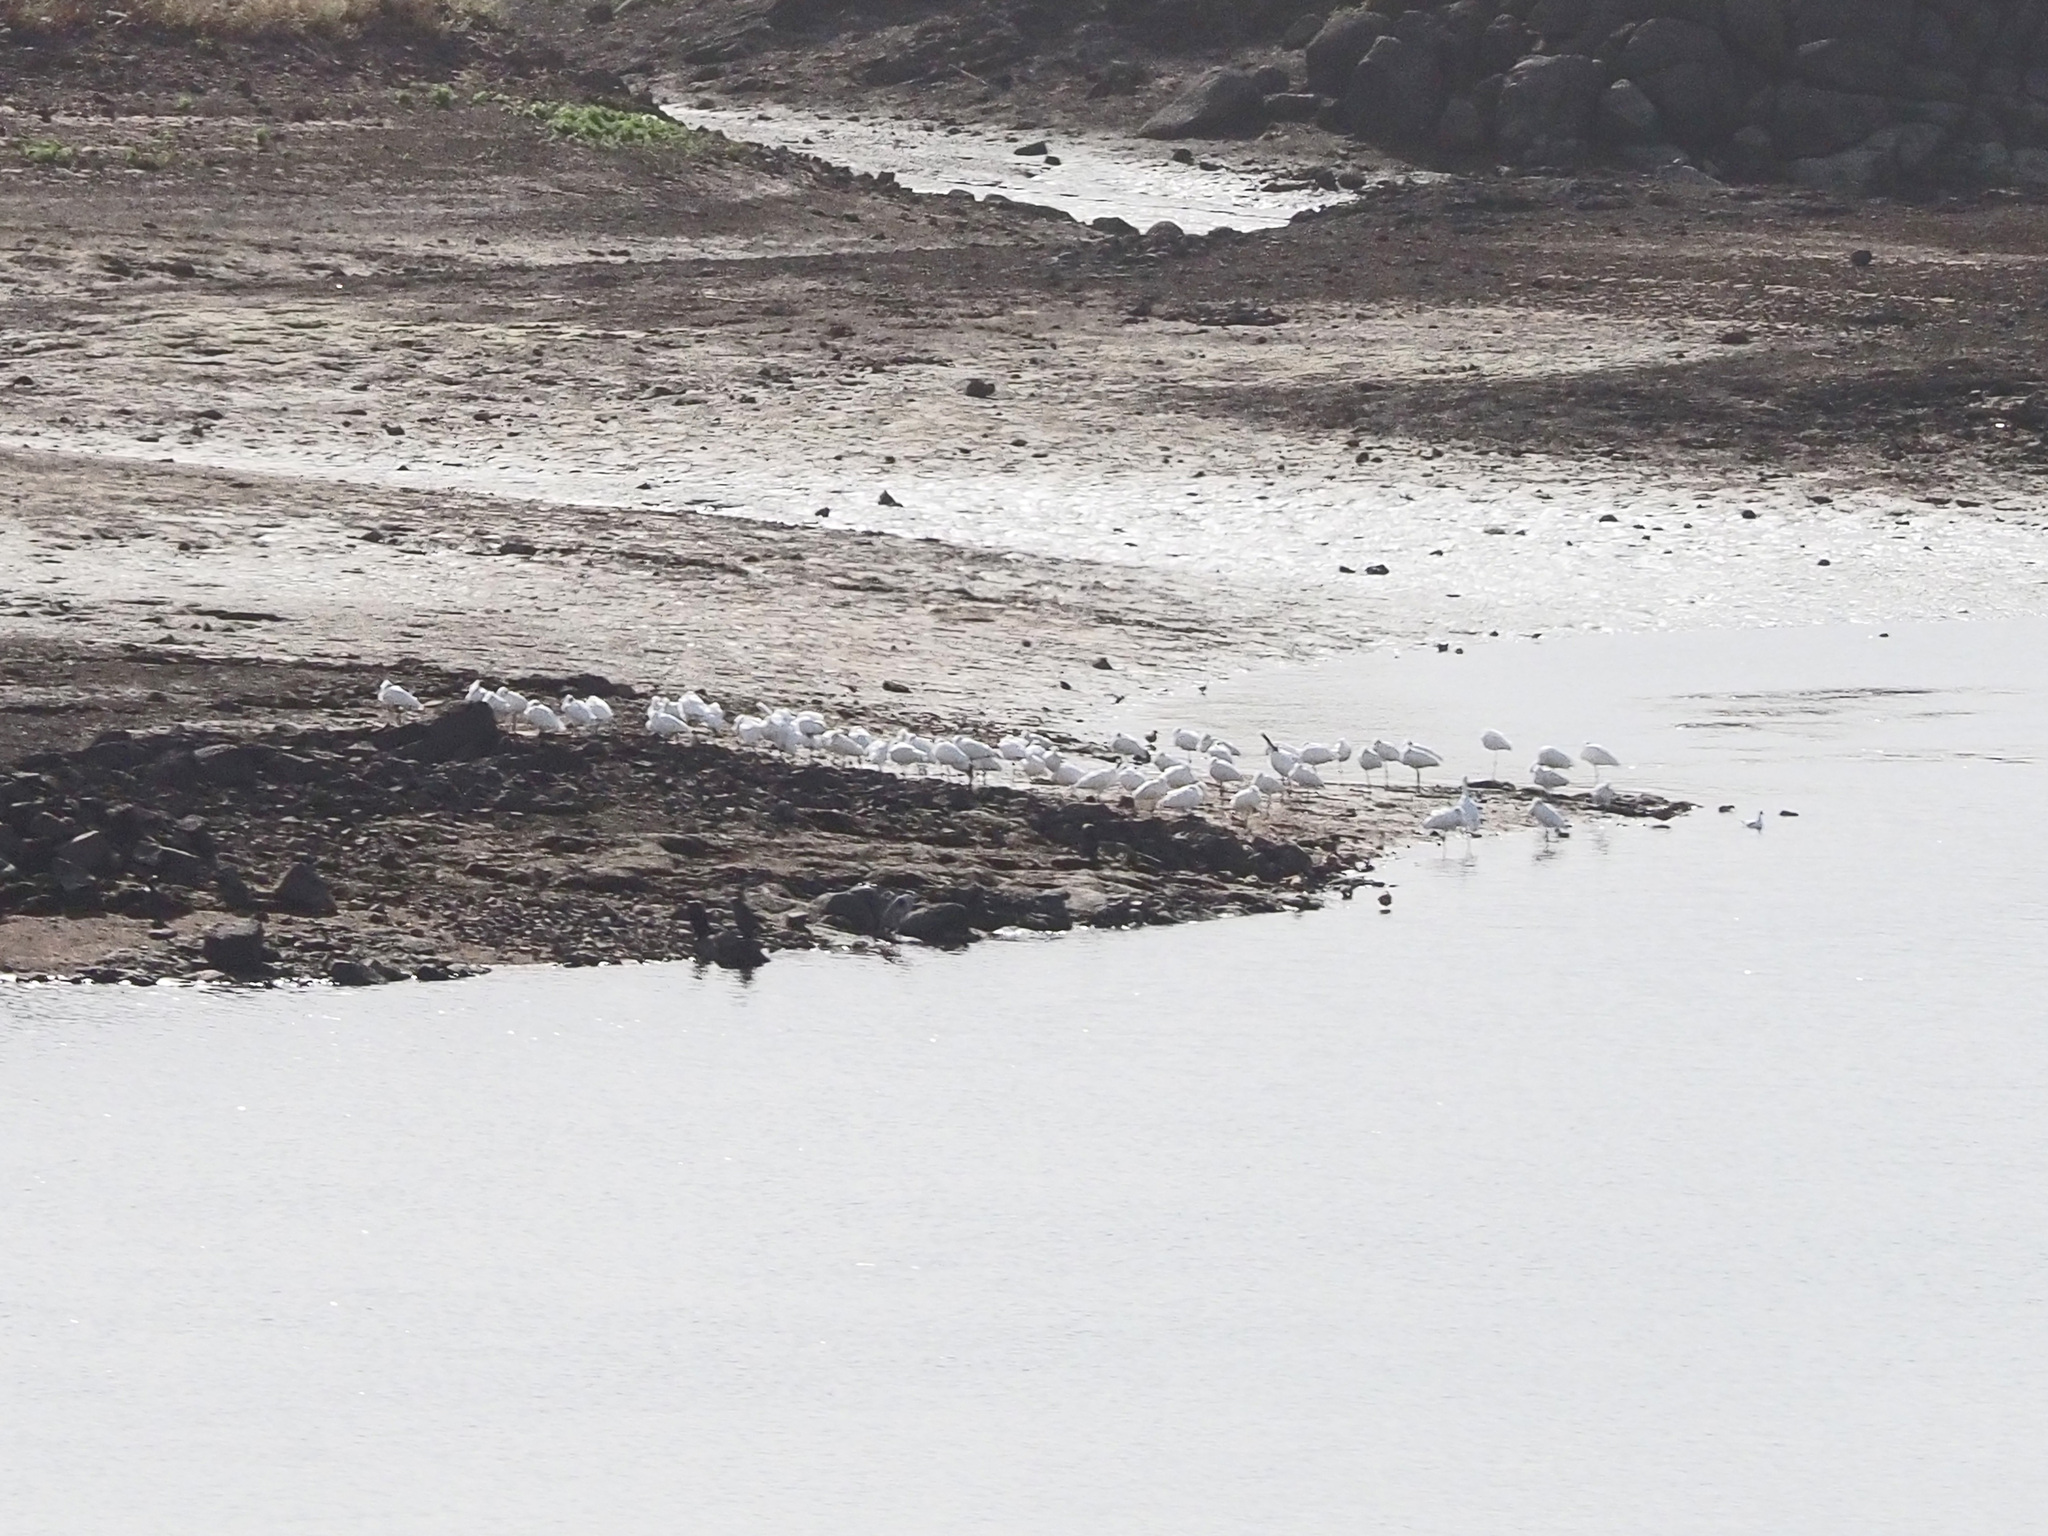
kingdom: Animalia
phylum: Chordata
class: Aves
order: Pelecaniformes
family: Threskiornithidae
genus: Platalea
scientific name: Platalea leucorodia
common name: Eurasian spoonbill
